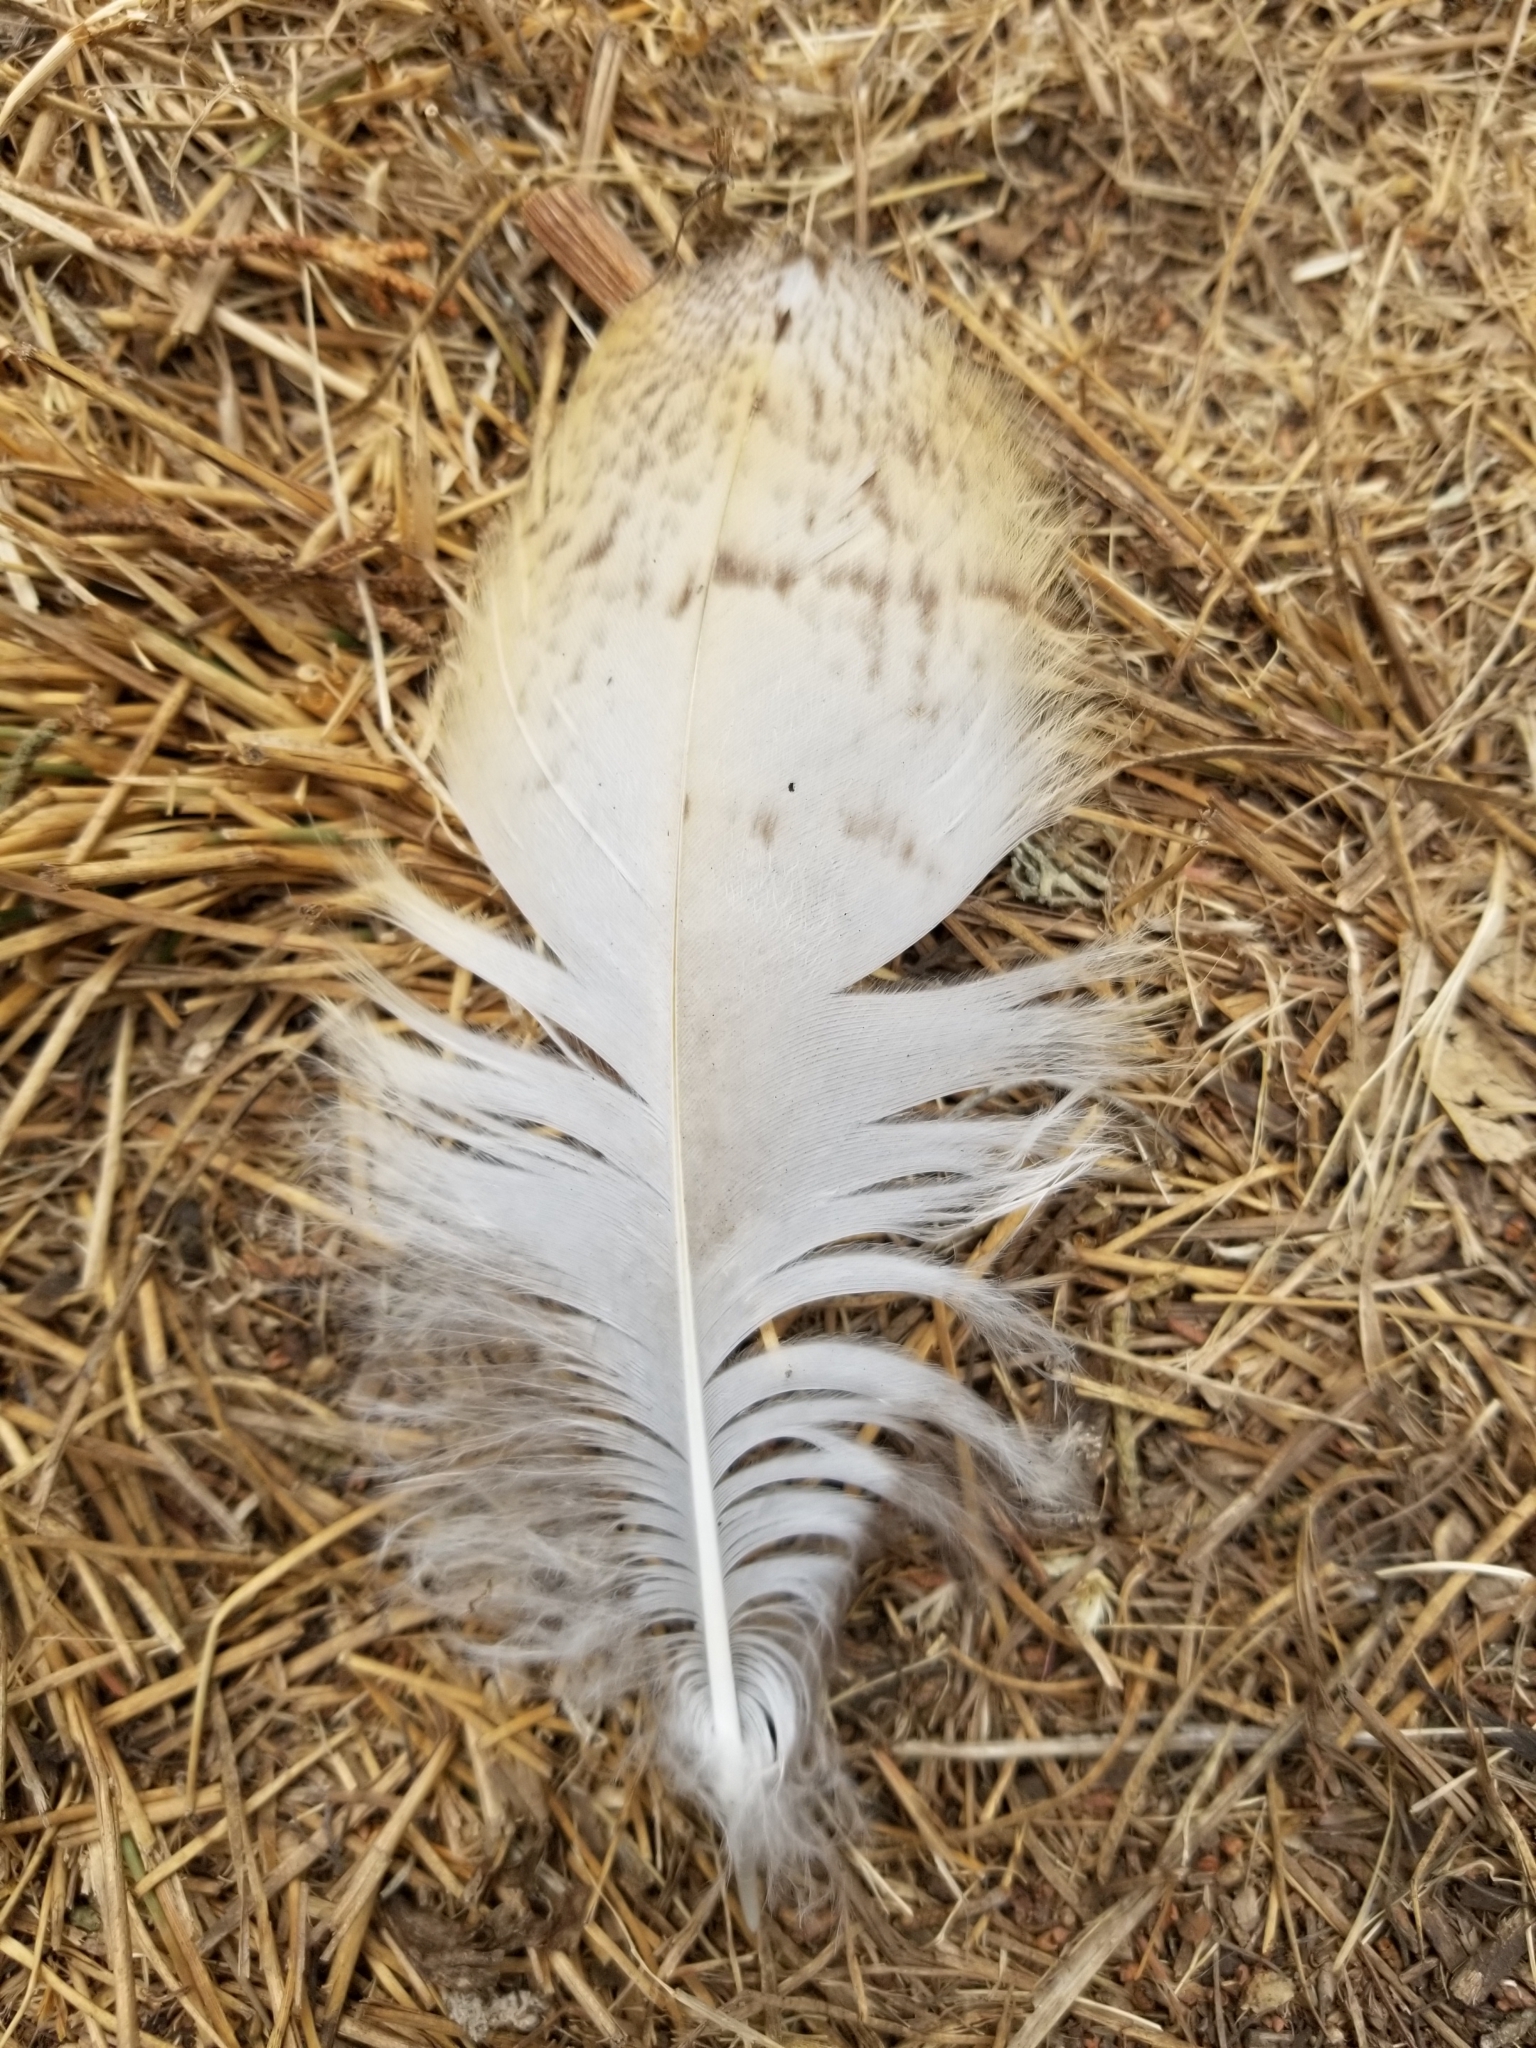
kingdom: Animalia
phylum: Chordata
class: Aves
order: Strigiformes
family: Tytonidae
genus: Tyto
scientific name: Tyto alba
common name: Barn owl
